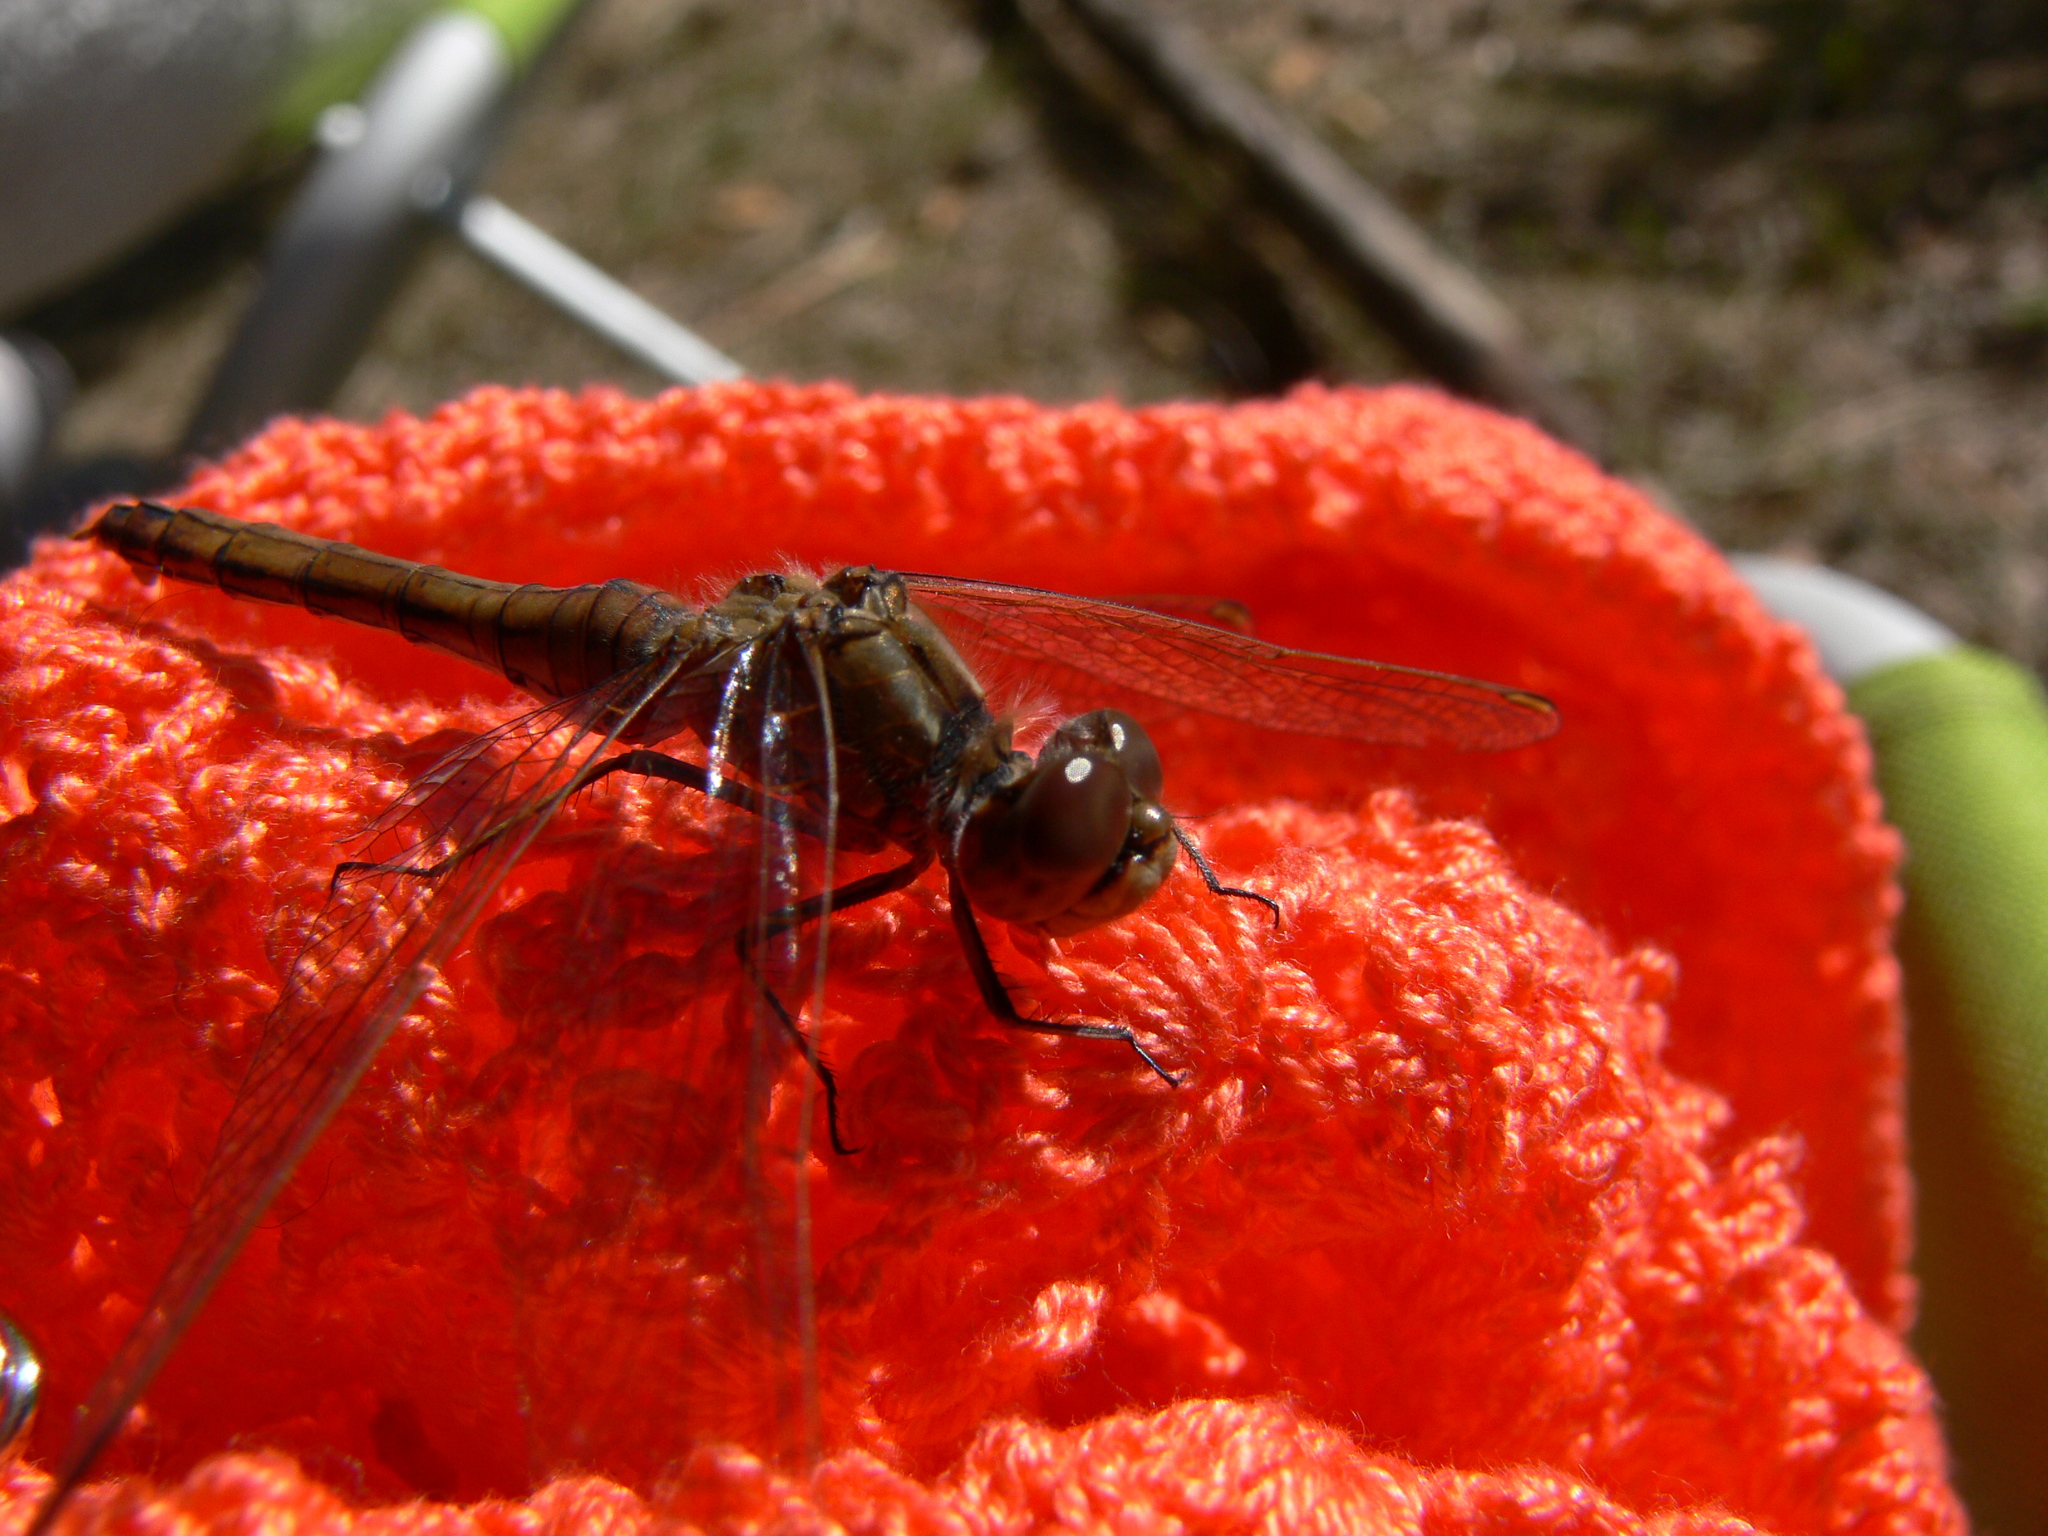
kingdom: Animalia
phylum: Arthropoda
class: Insecta
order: Odonata
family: Libellulidae
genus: Sympetrum
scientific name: Sympetrum vulgatum
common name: Vagrant darter
